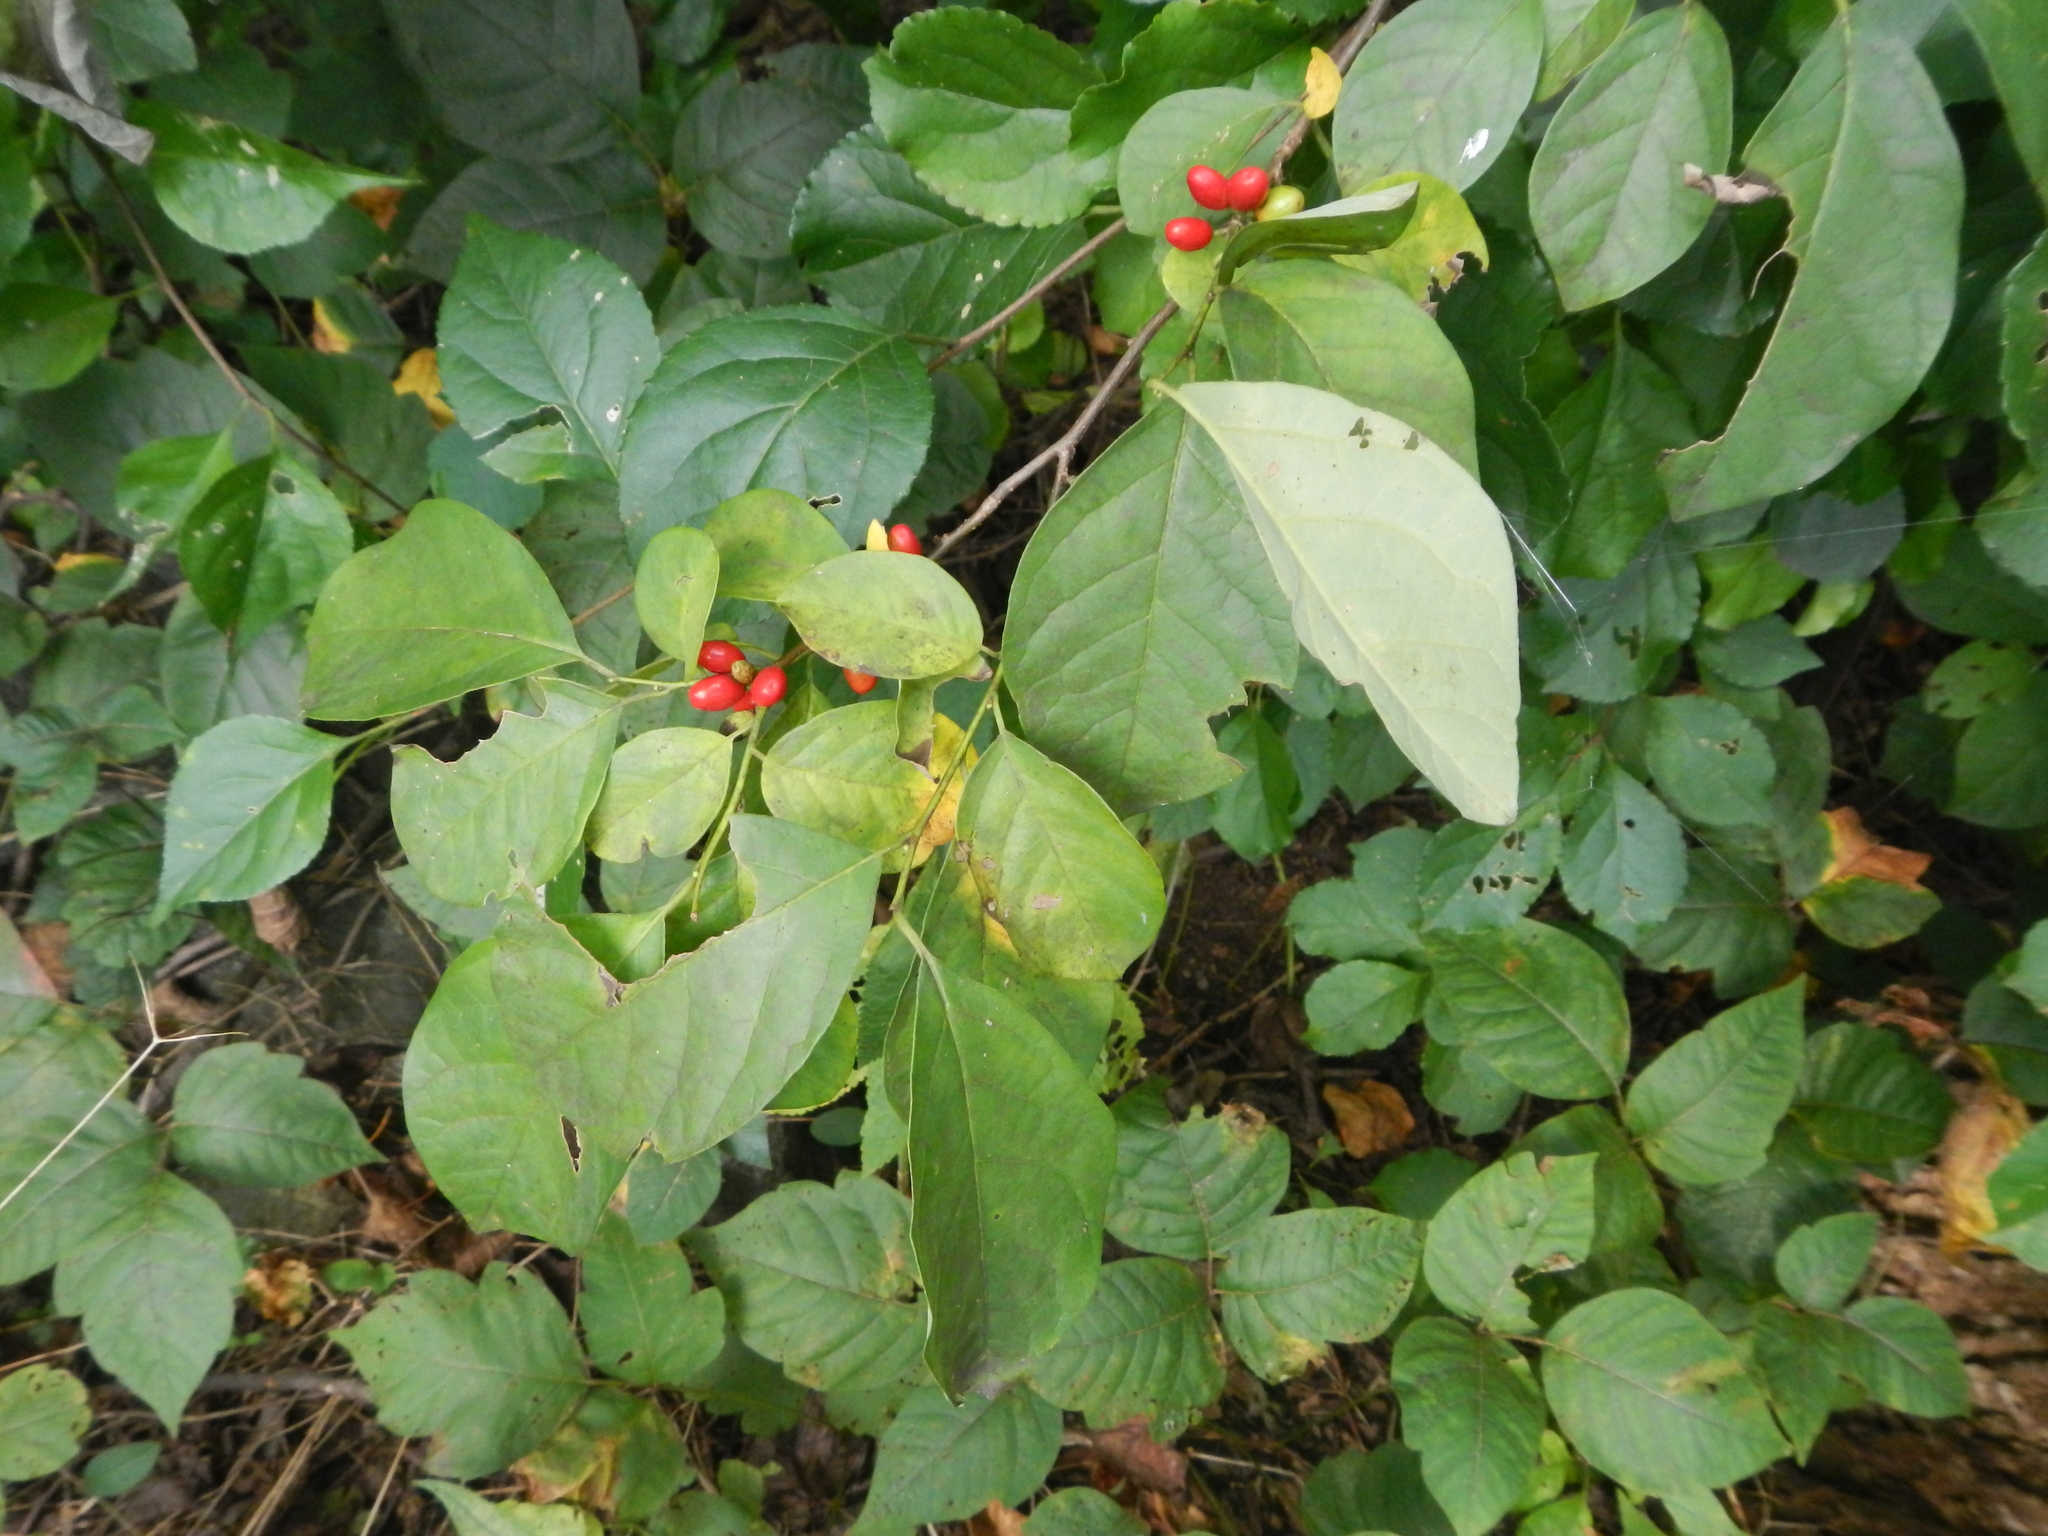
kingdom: Plantae
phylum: Tracheophyta
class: Magnoliopsida
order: Laurales
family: Lauraceae
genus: Lindera
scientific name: Lindera benzoin
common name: Spicebush
